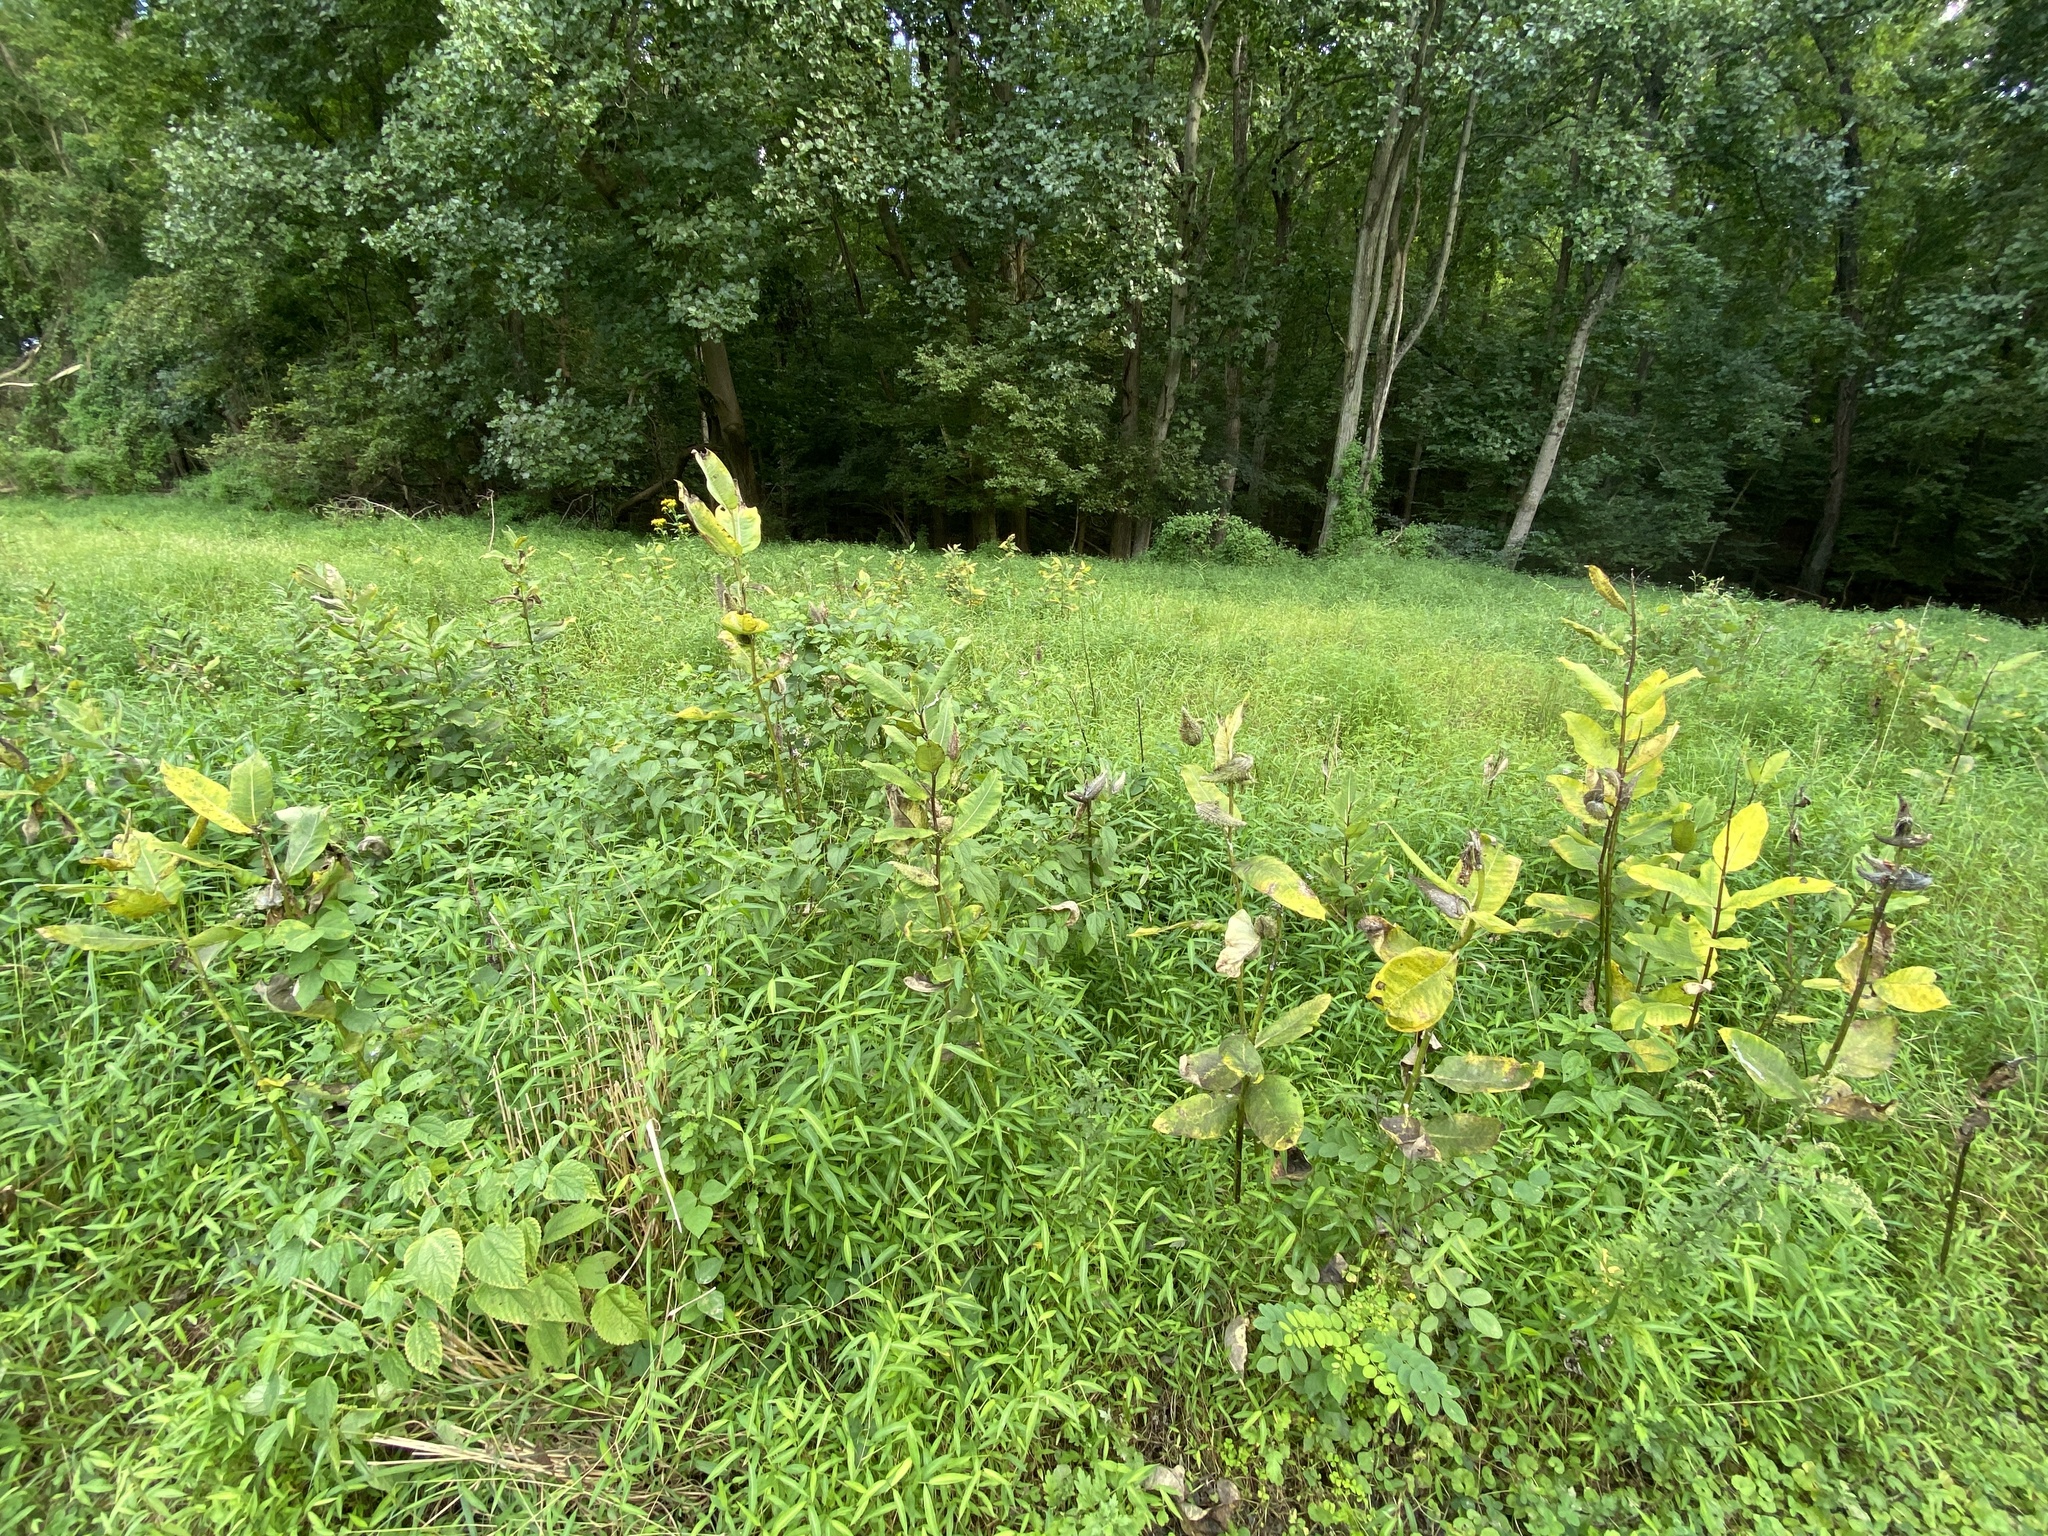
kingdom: Plantae
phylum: Tracheophyta
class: Magnoliopsida
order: Gentianales
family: Apocynaceae
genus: Asclepias
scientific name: Asclepias syriaca
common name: Common milkweed
